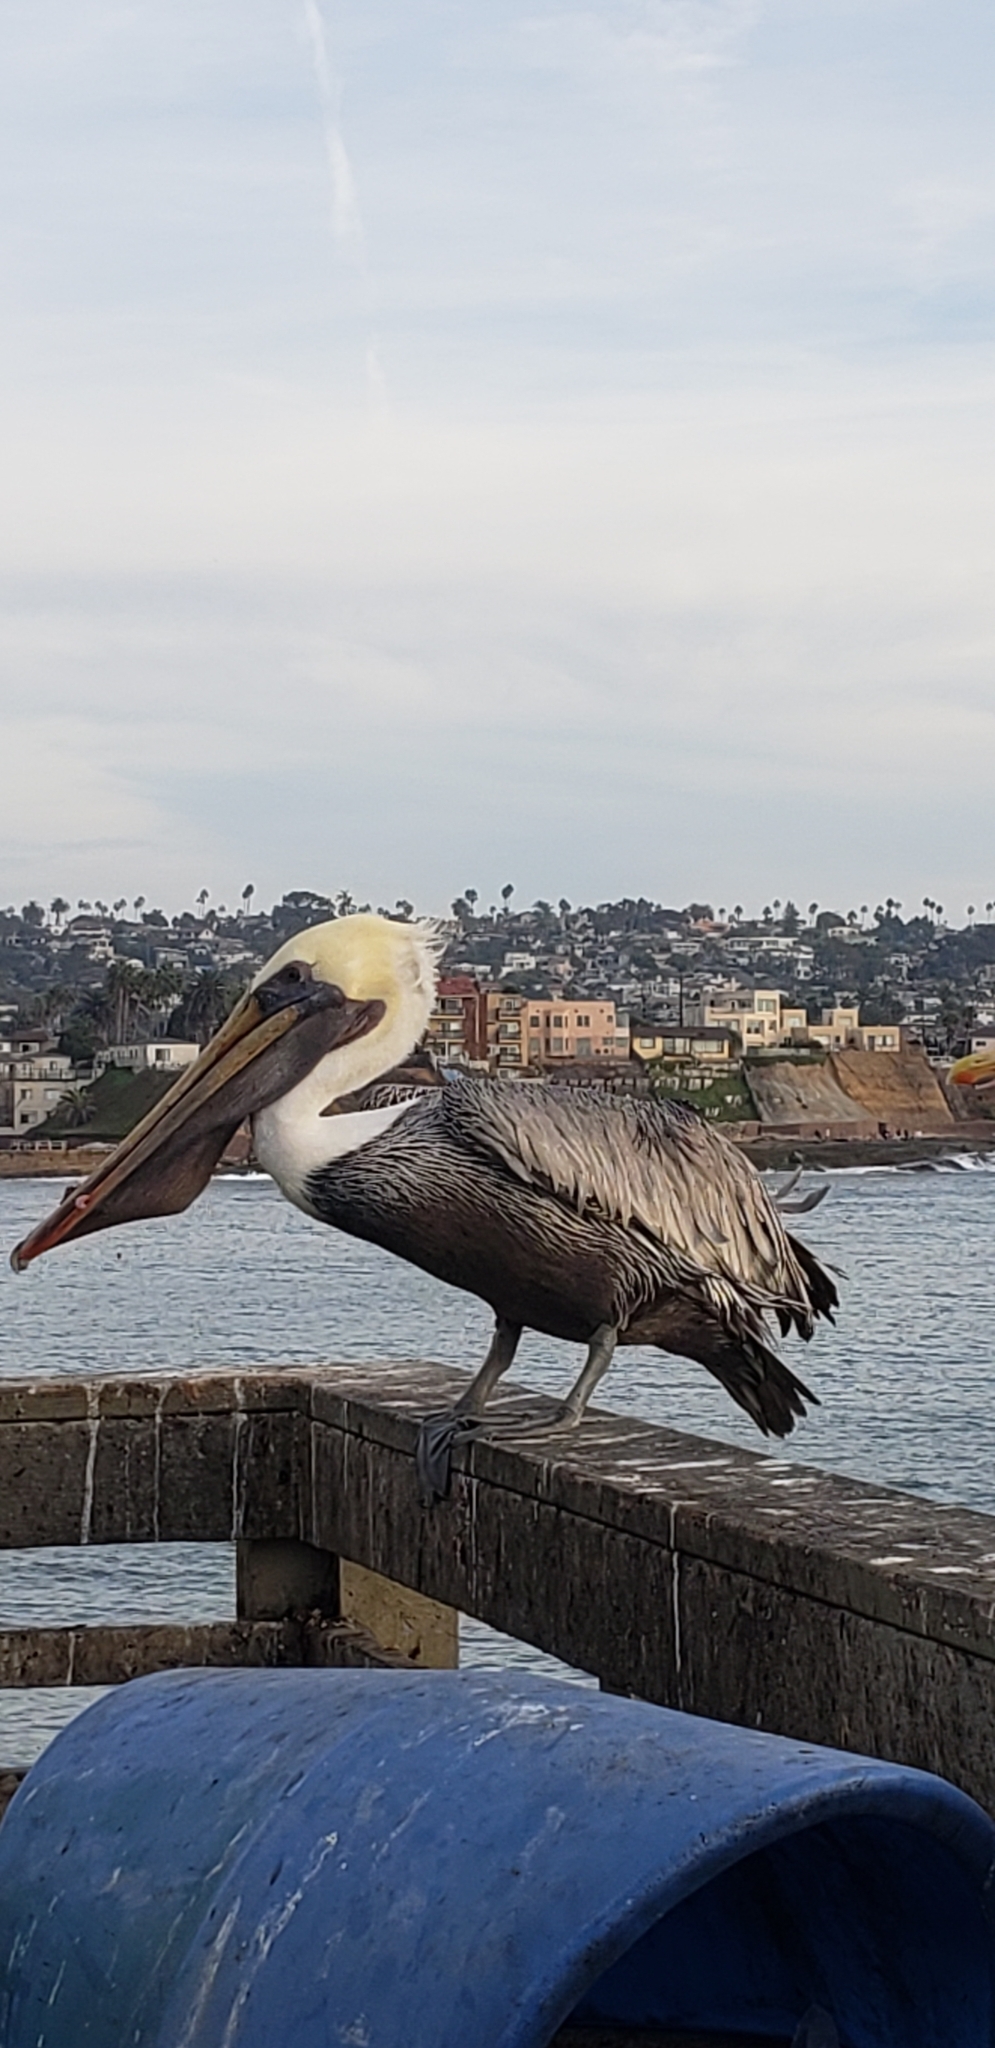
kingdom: Animalia
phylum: Chordata
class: Aves
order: Pelecaniformes
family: Pelecanidae
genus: Pelecanus
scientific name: Pelecanus occidentalis
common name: Brown pelican
